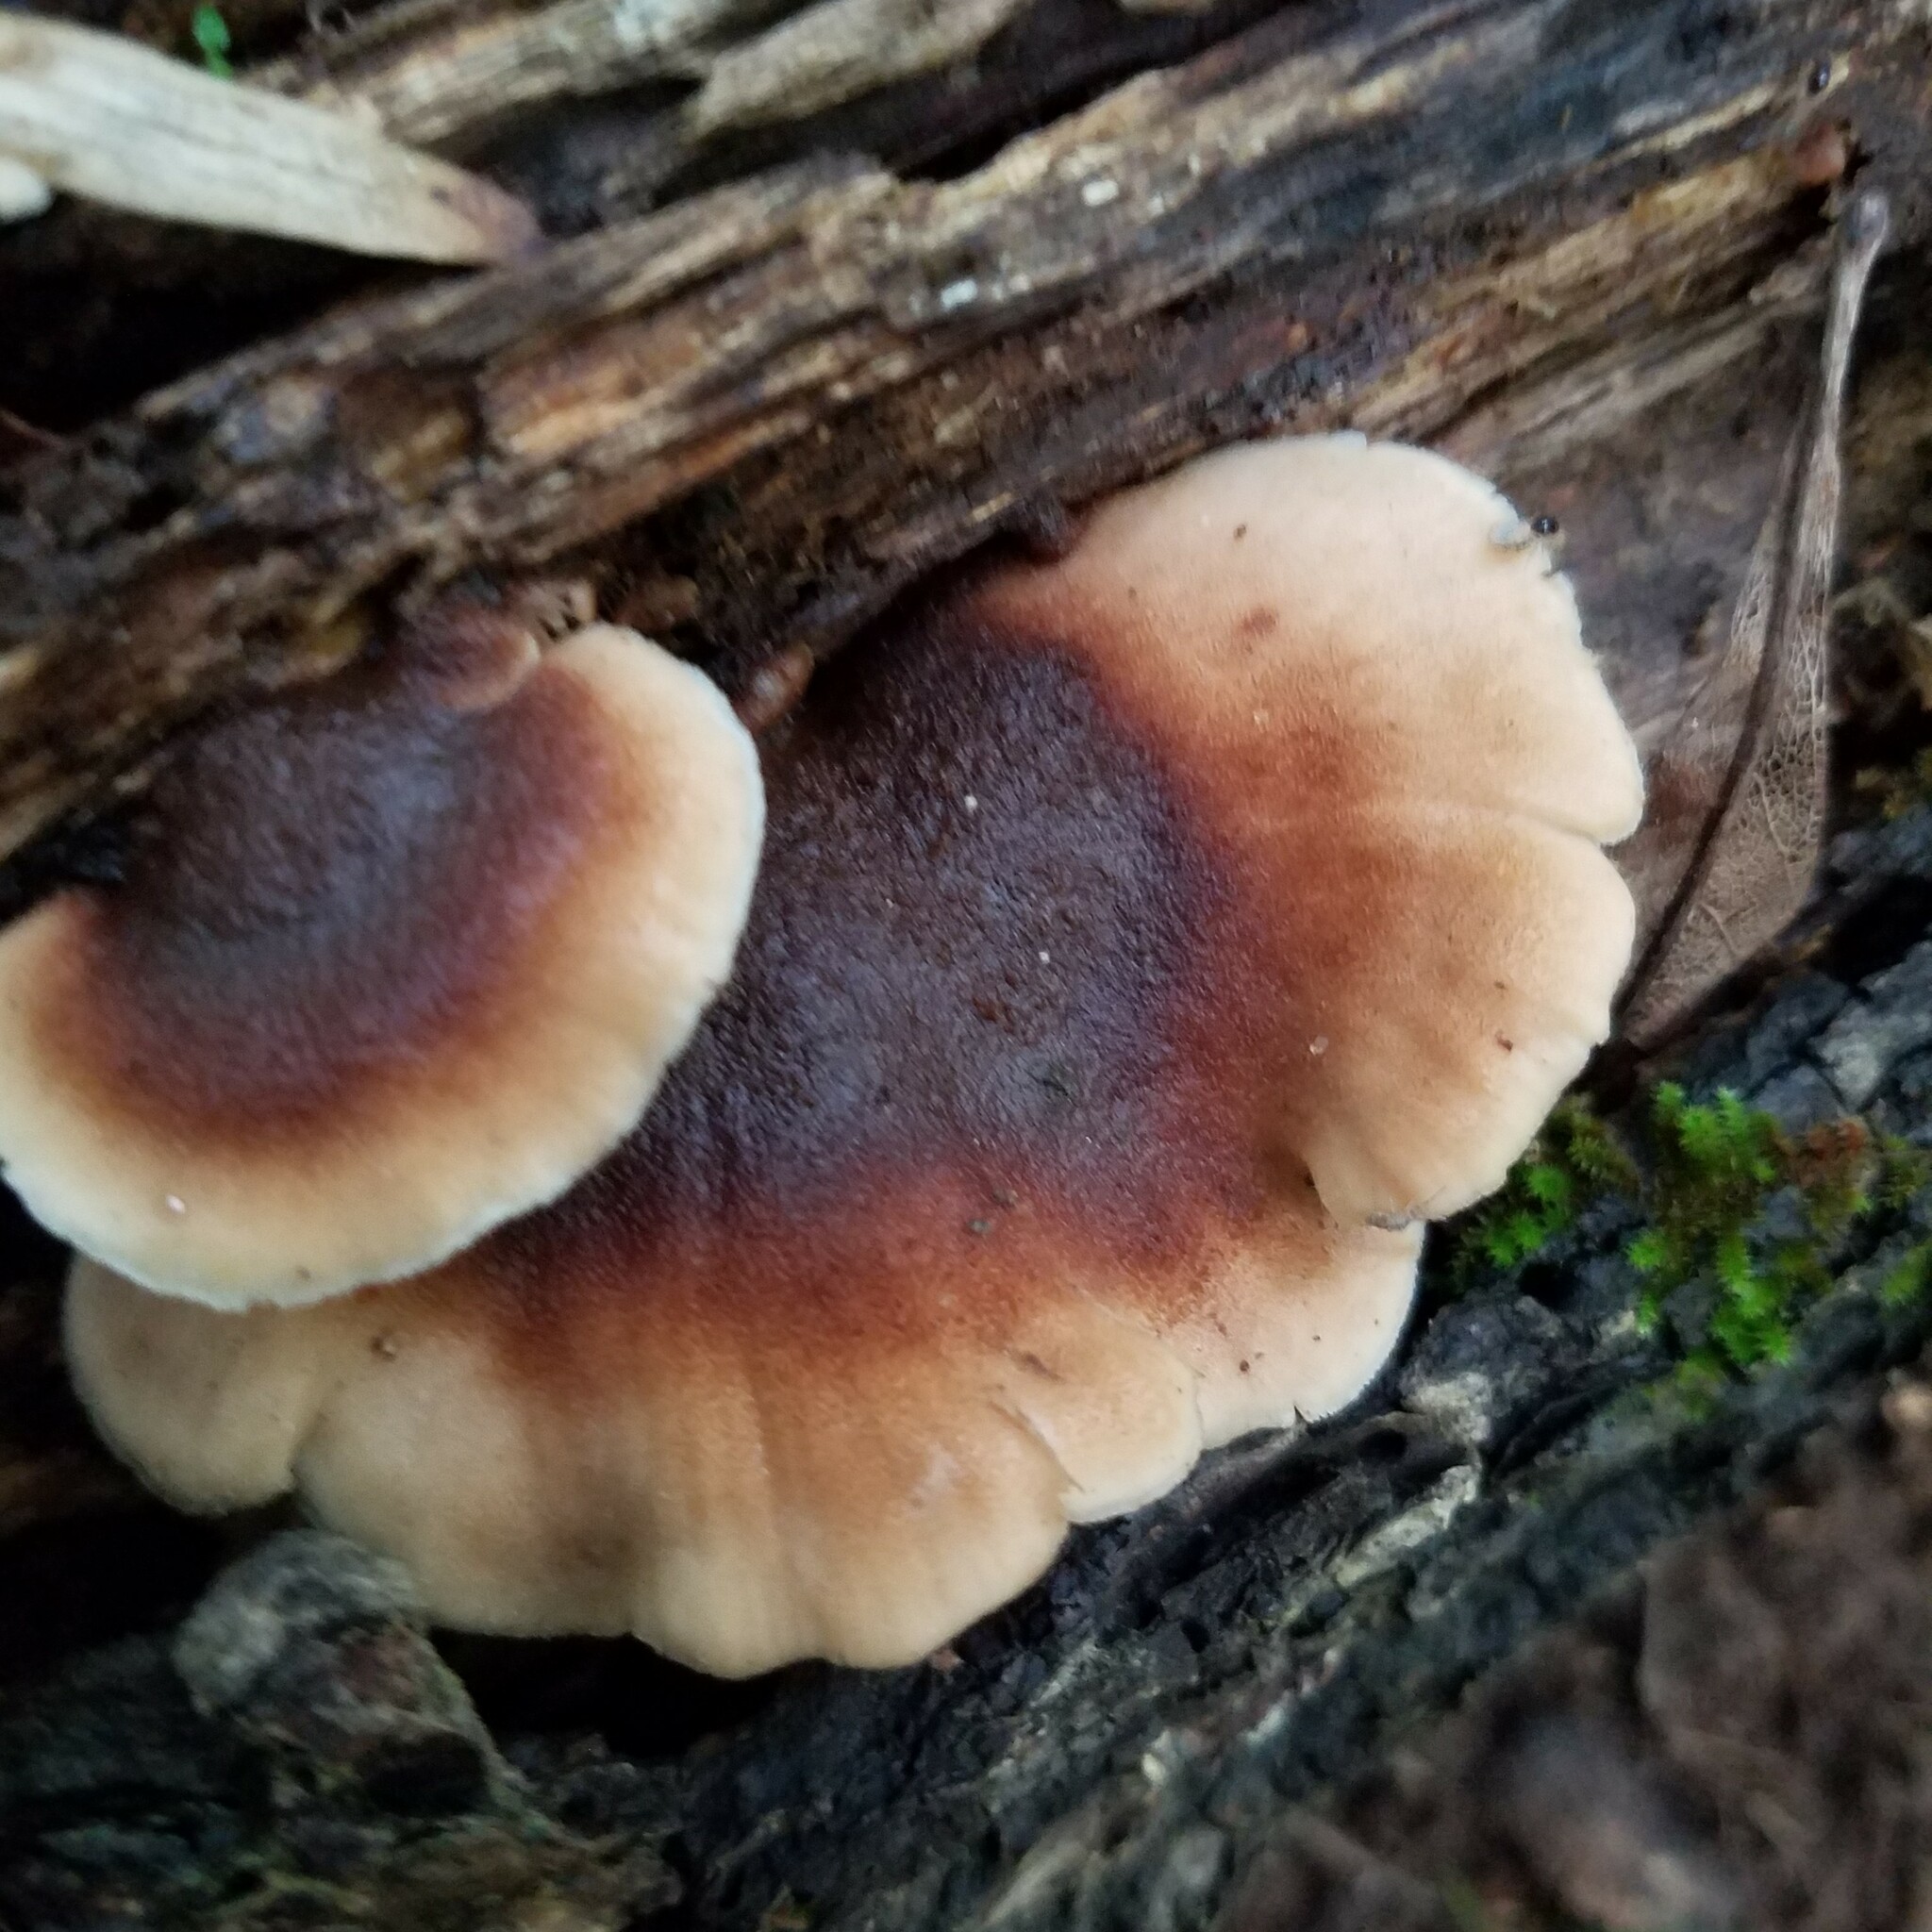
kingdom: Fungi
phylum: Basidiomycota
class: Agaricomycetes
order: Russulales
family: Auriscalpiaceae
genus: Lentinellus
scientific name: Lentinellus ursinus
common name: Bear lentinus
